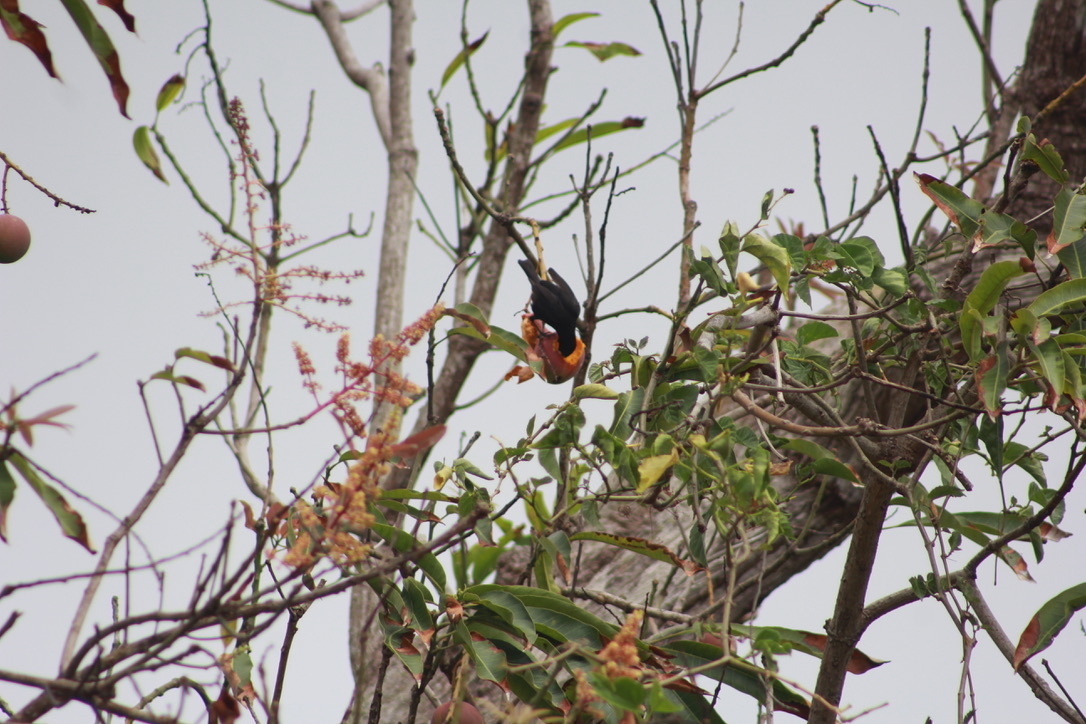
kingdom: Animalia
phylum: Chordata
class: Aves
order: Passeriformes
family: Thraupidae
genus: Loxigilla
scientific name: Loxigilla noctis
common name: Lesser antillean bullfinch
